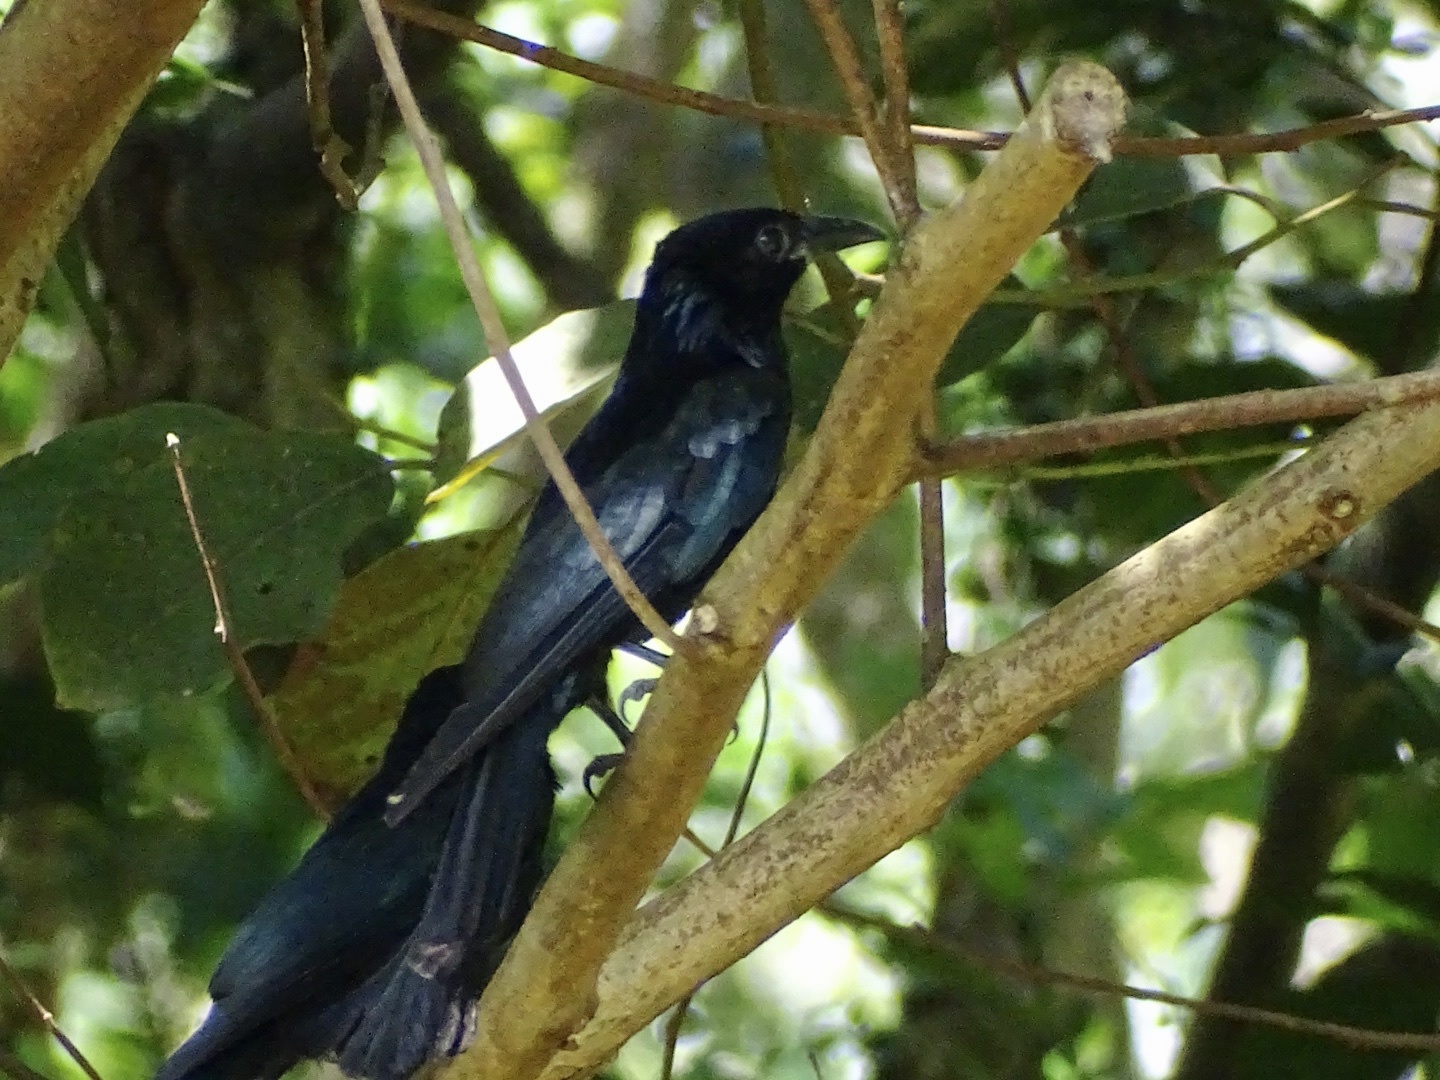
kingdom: Animalia
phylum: Chordata
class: Aves
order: Passeriformes
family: Dicruridae
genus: Dicrurus
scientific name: Dicrurus hottentottus
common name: Hair-crested drongo
